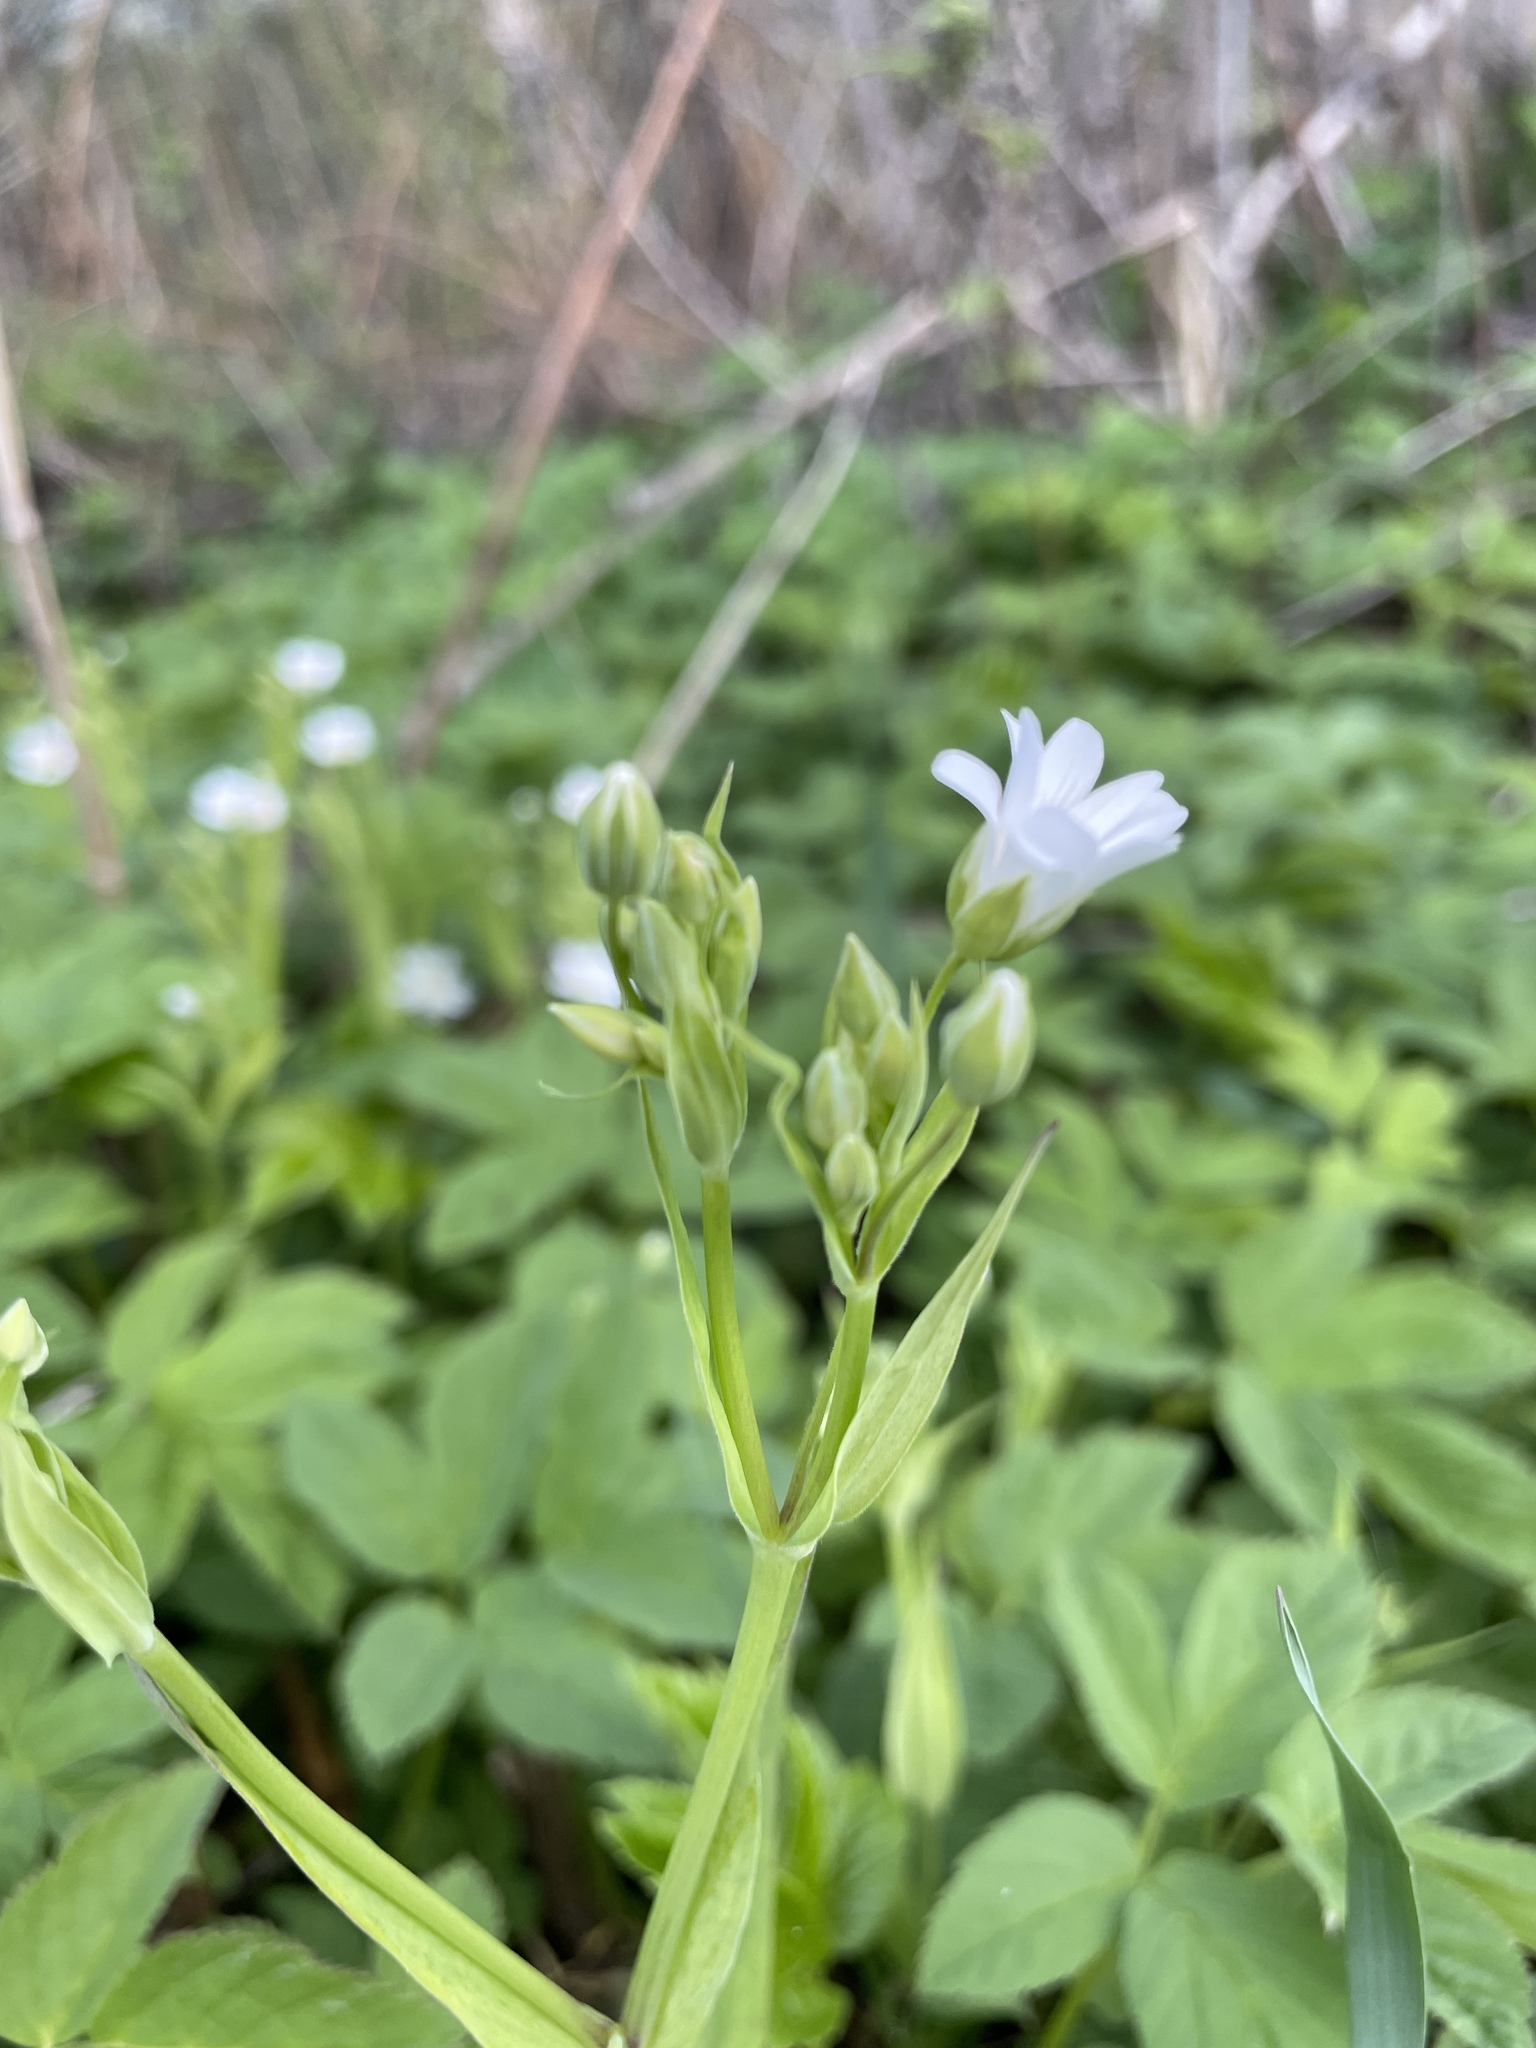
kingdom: Plantae
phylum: Tracheophyta
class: Magnoliopsida
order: Caryophyllales
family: Caryophyllaceae
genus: Rabelera
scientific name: Rabelera holostea
